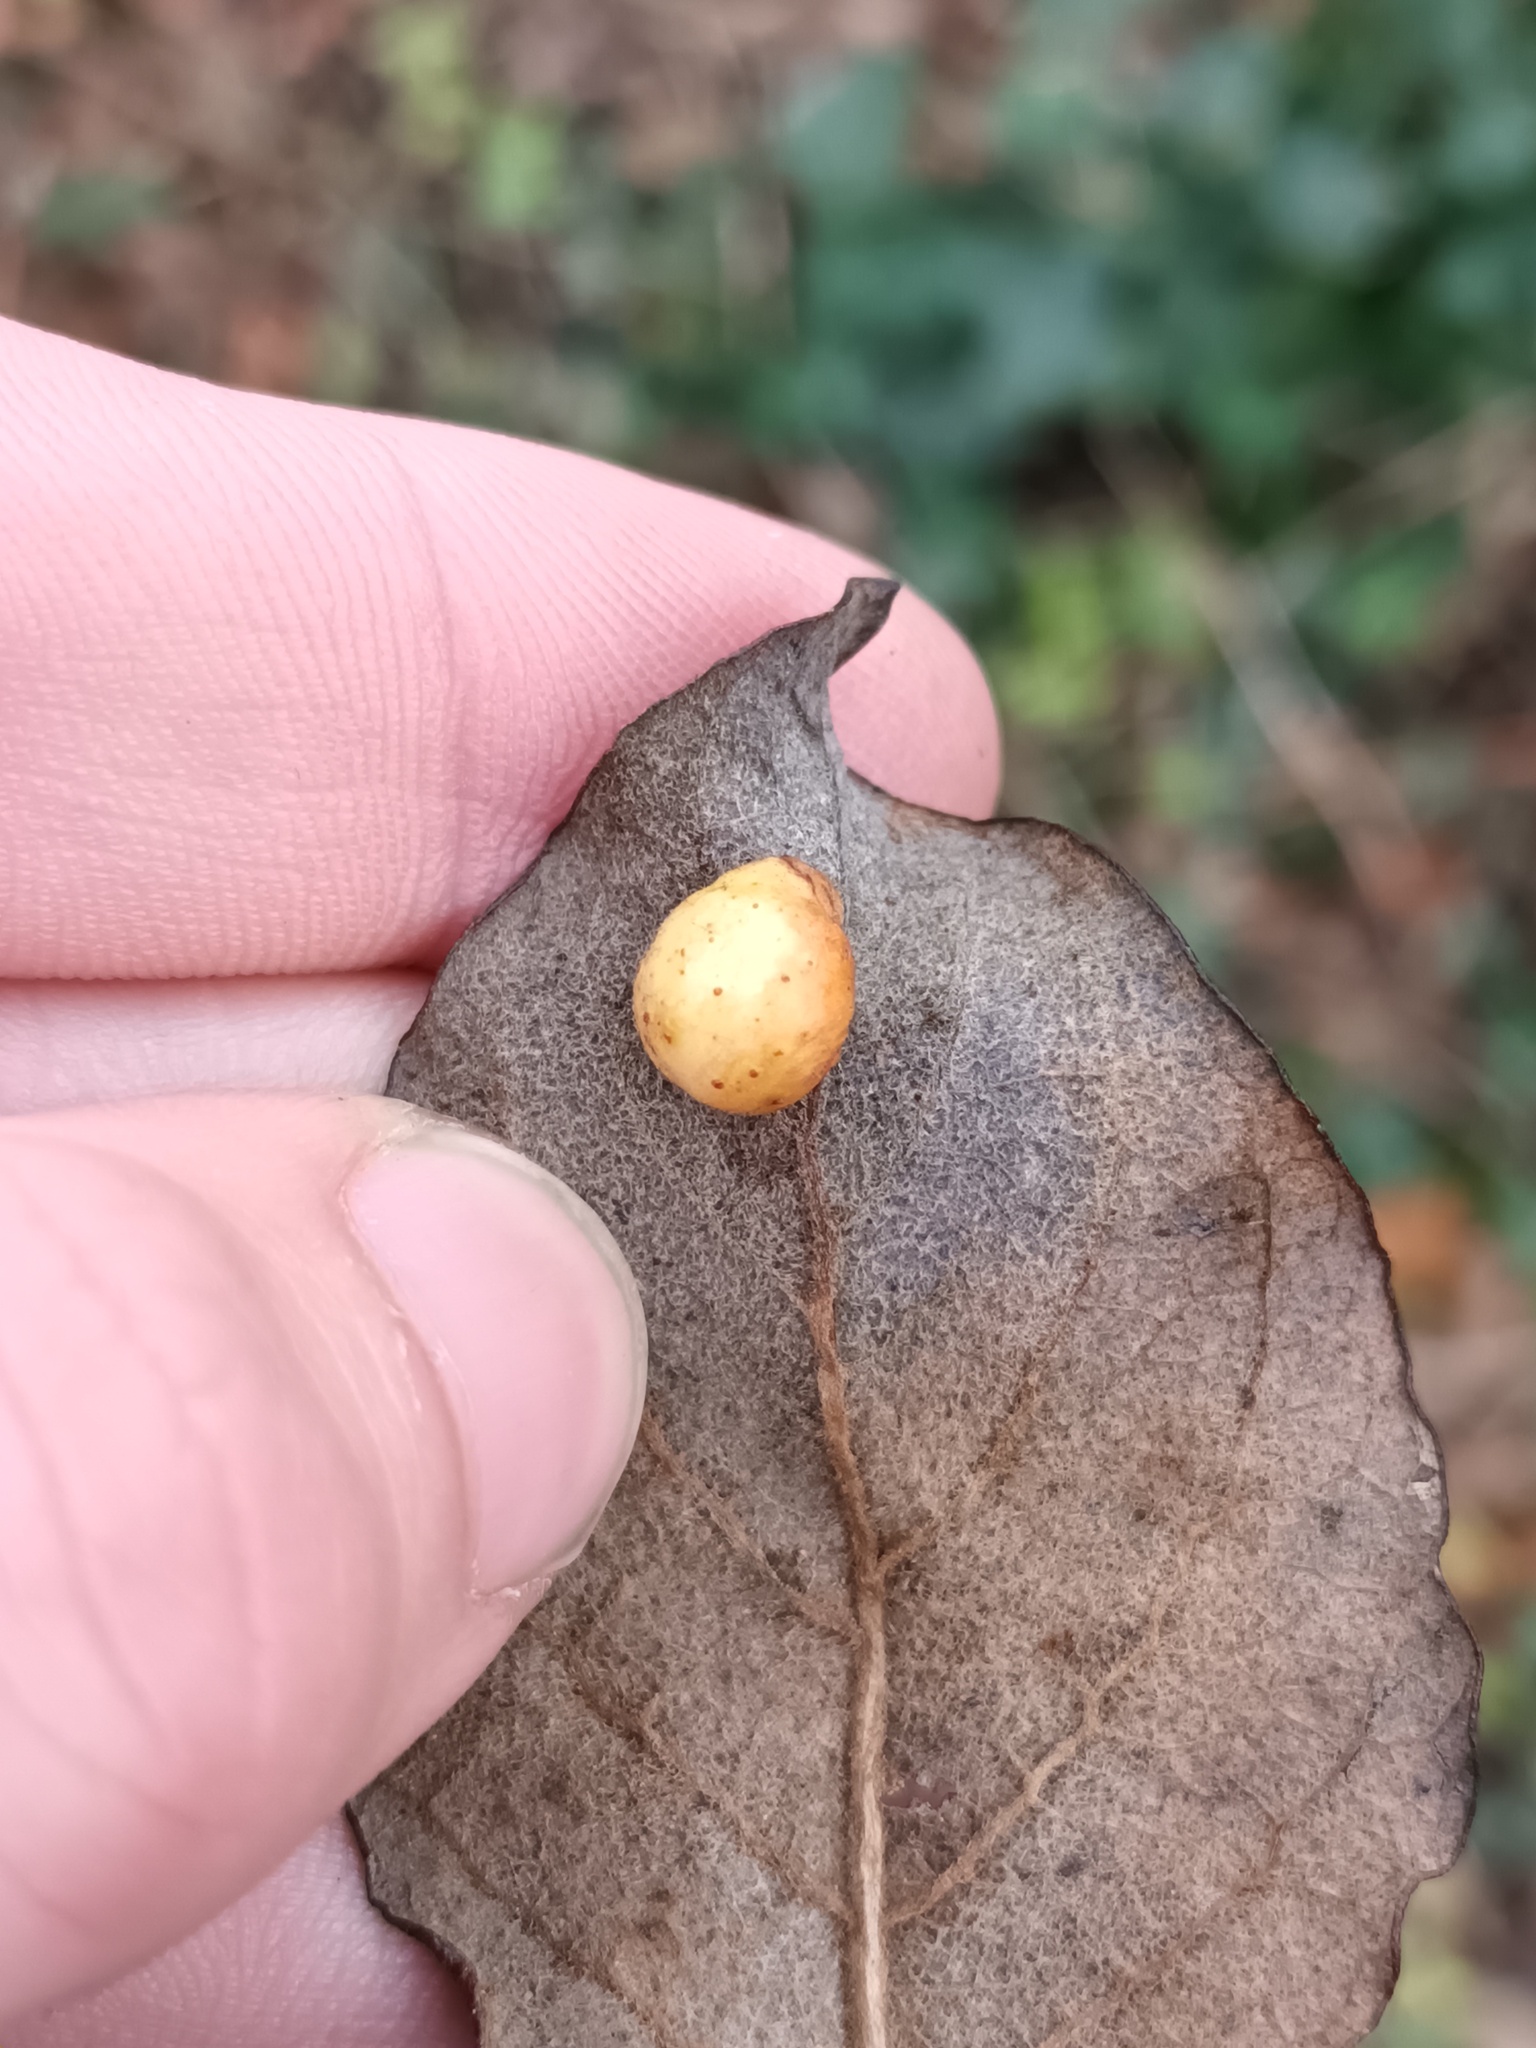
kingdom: Animalia
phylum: Arthropoda
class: Insecta
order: Hymenoptera
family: Tenthredinidae
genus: Pontania
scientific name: Pontania pedunculi
